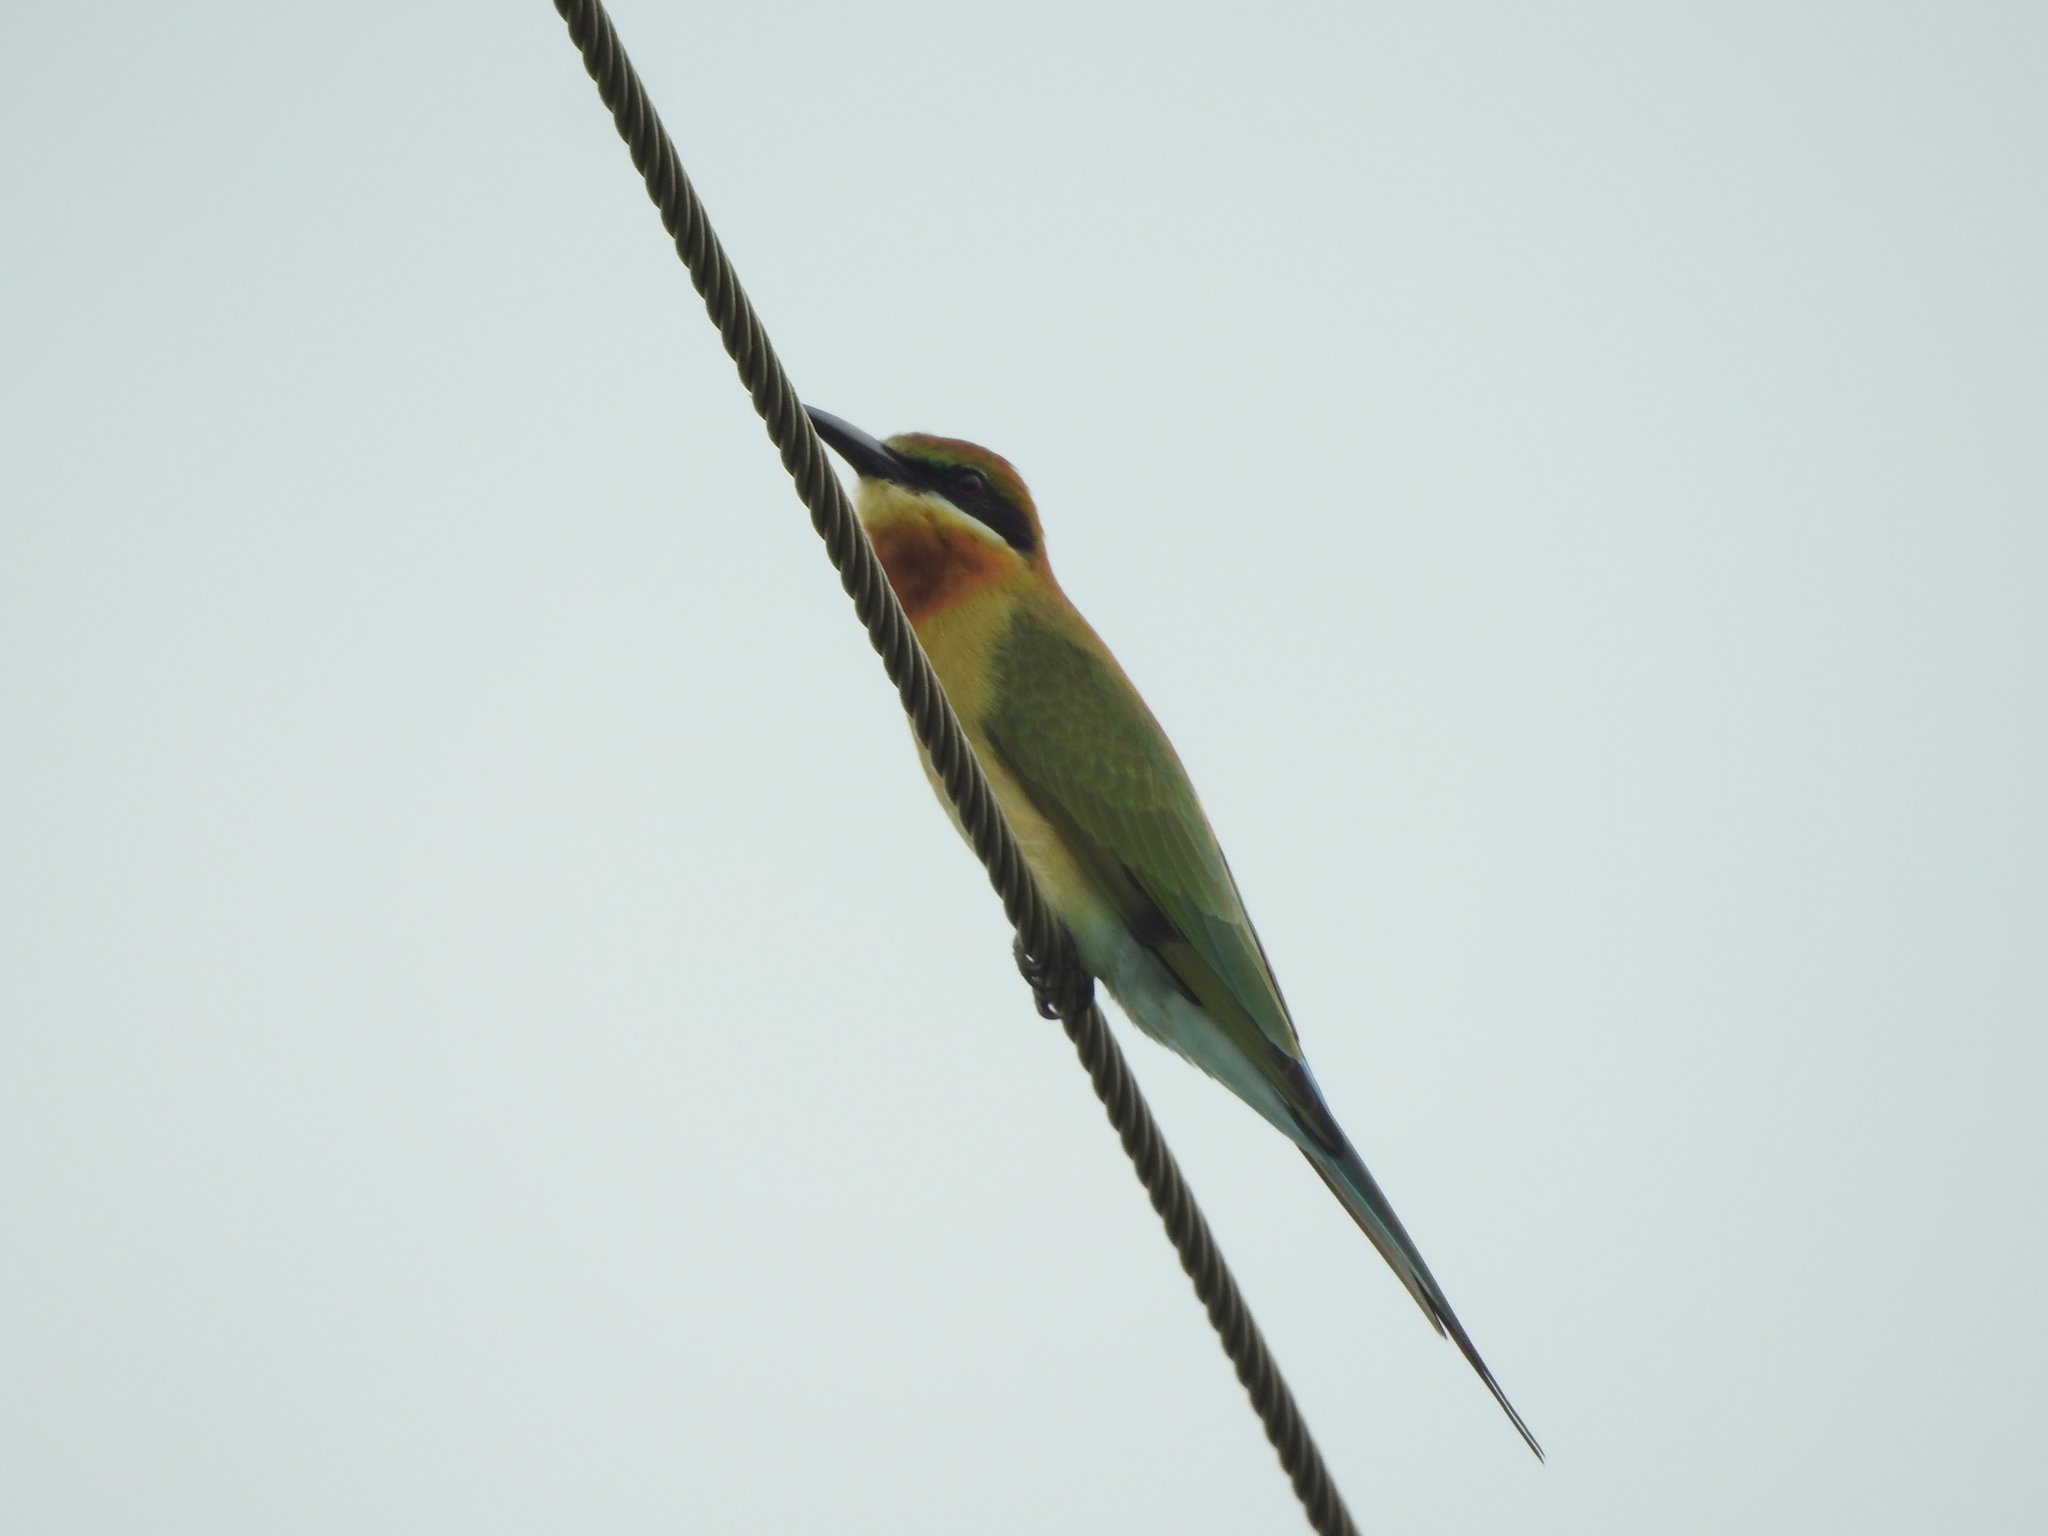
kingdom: Animalia
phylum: Chordata
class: Aves
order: Coraciiformes
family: Meropidae
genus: Merops
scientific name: Merops philippinus
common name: Blue-tailed bee-eater
